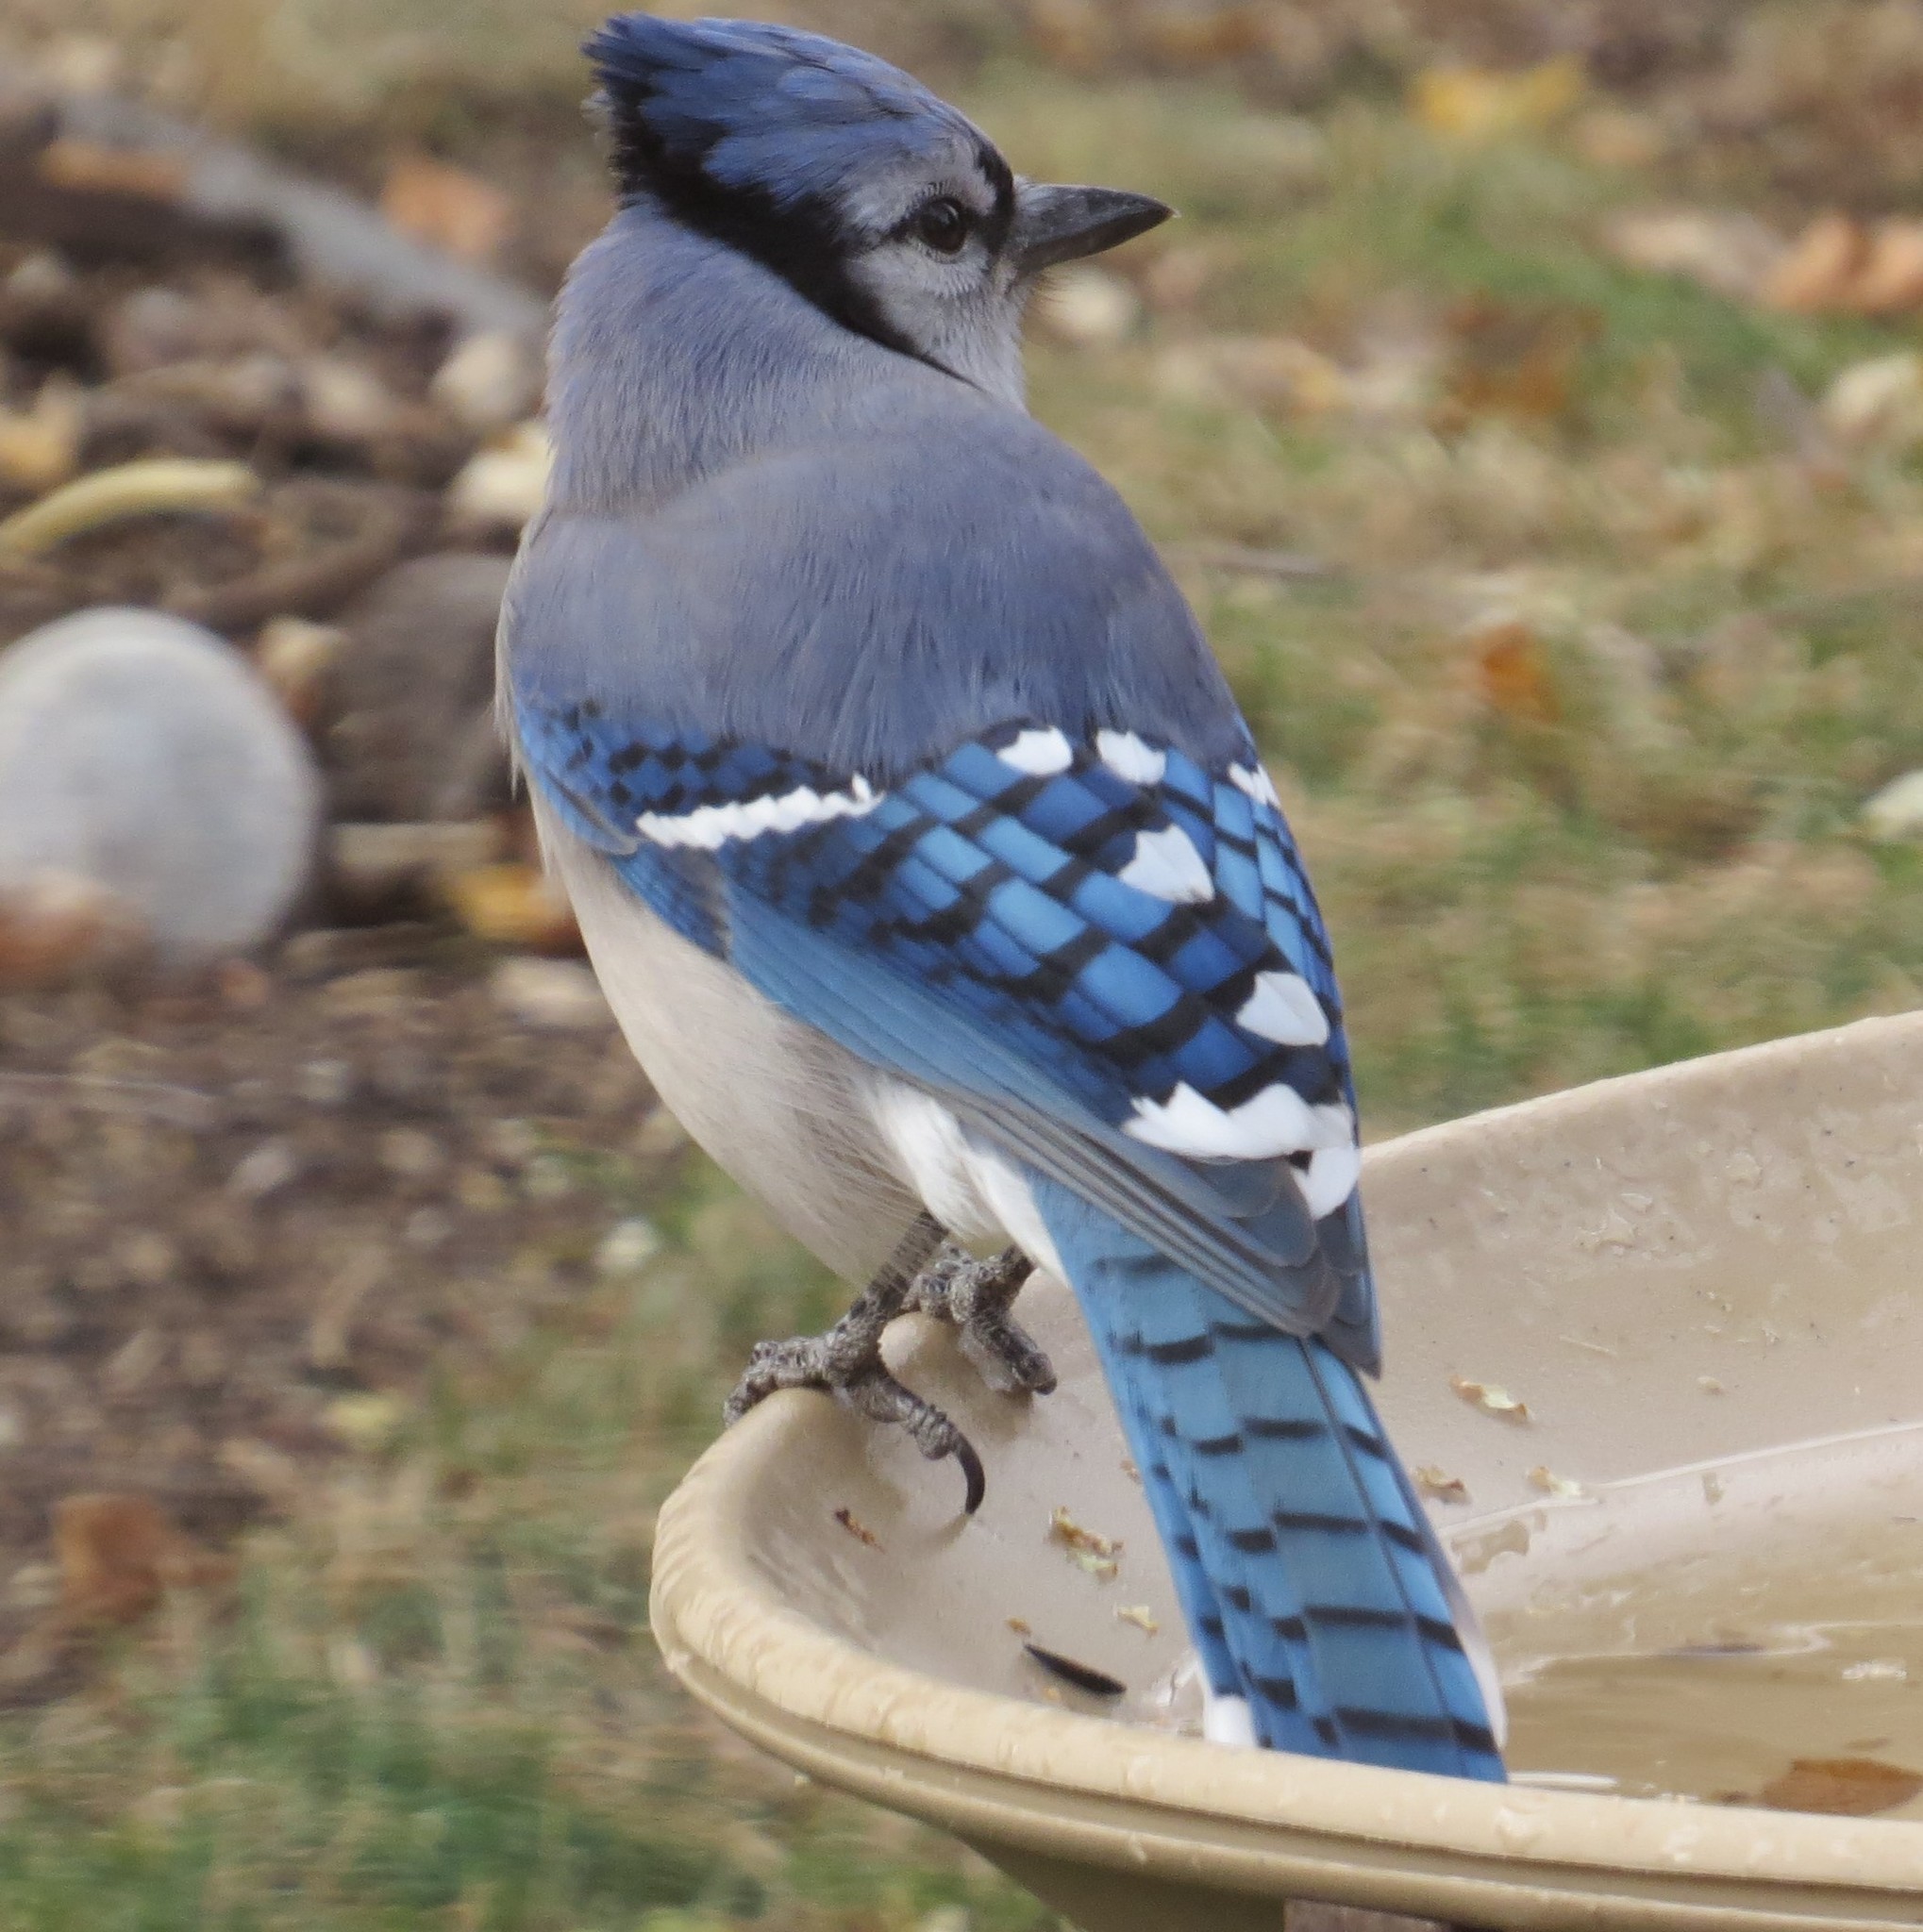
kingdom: Animalia
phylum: Chordata
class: Aves
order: Passeriformes
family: Corvidae
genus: Cyanocitta
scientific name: Cyanocitta cristata
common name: Blue jay
